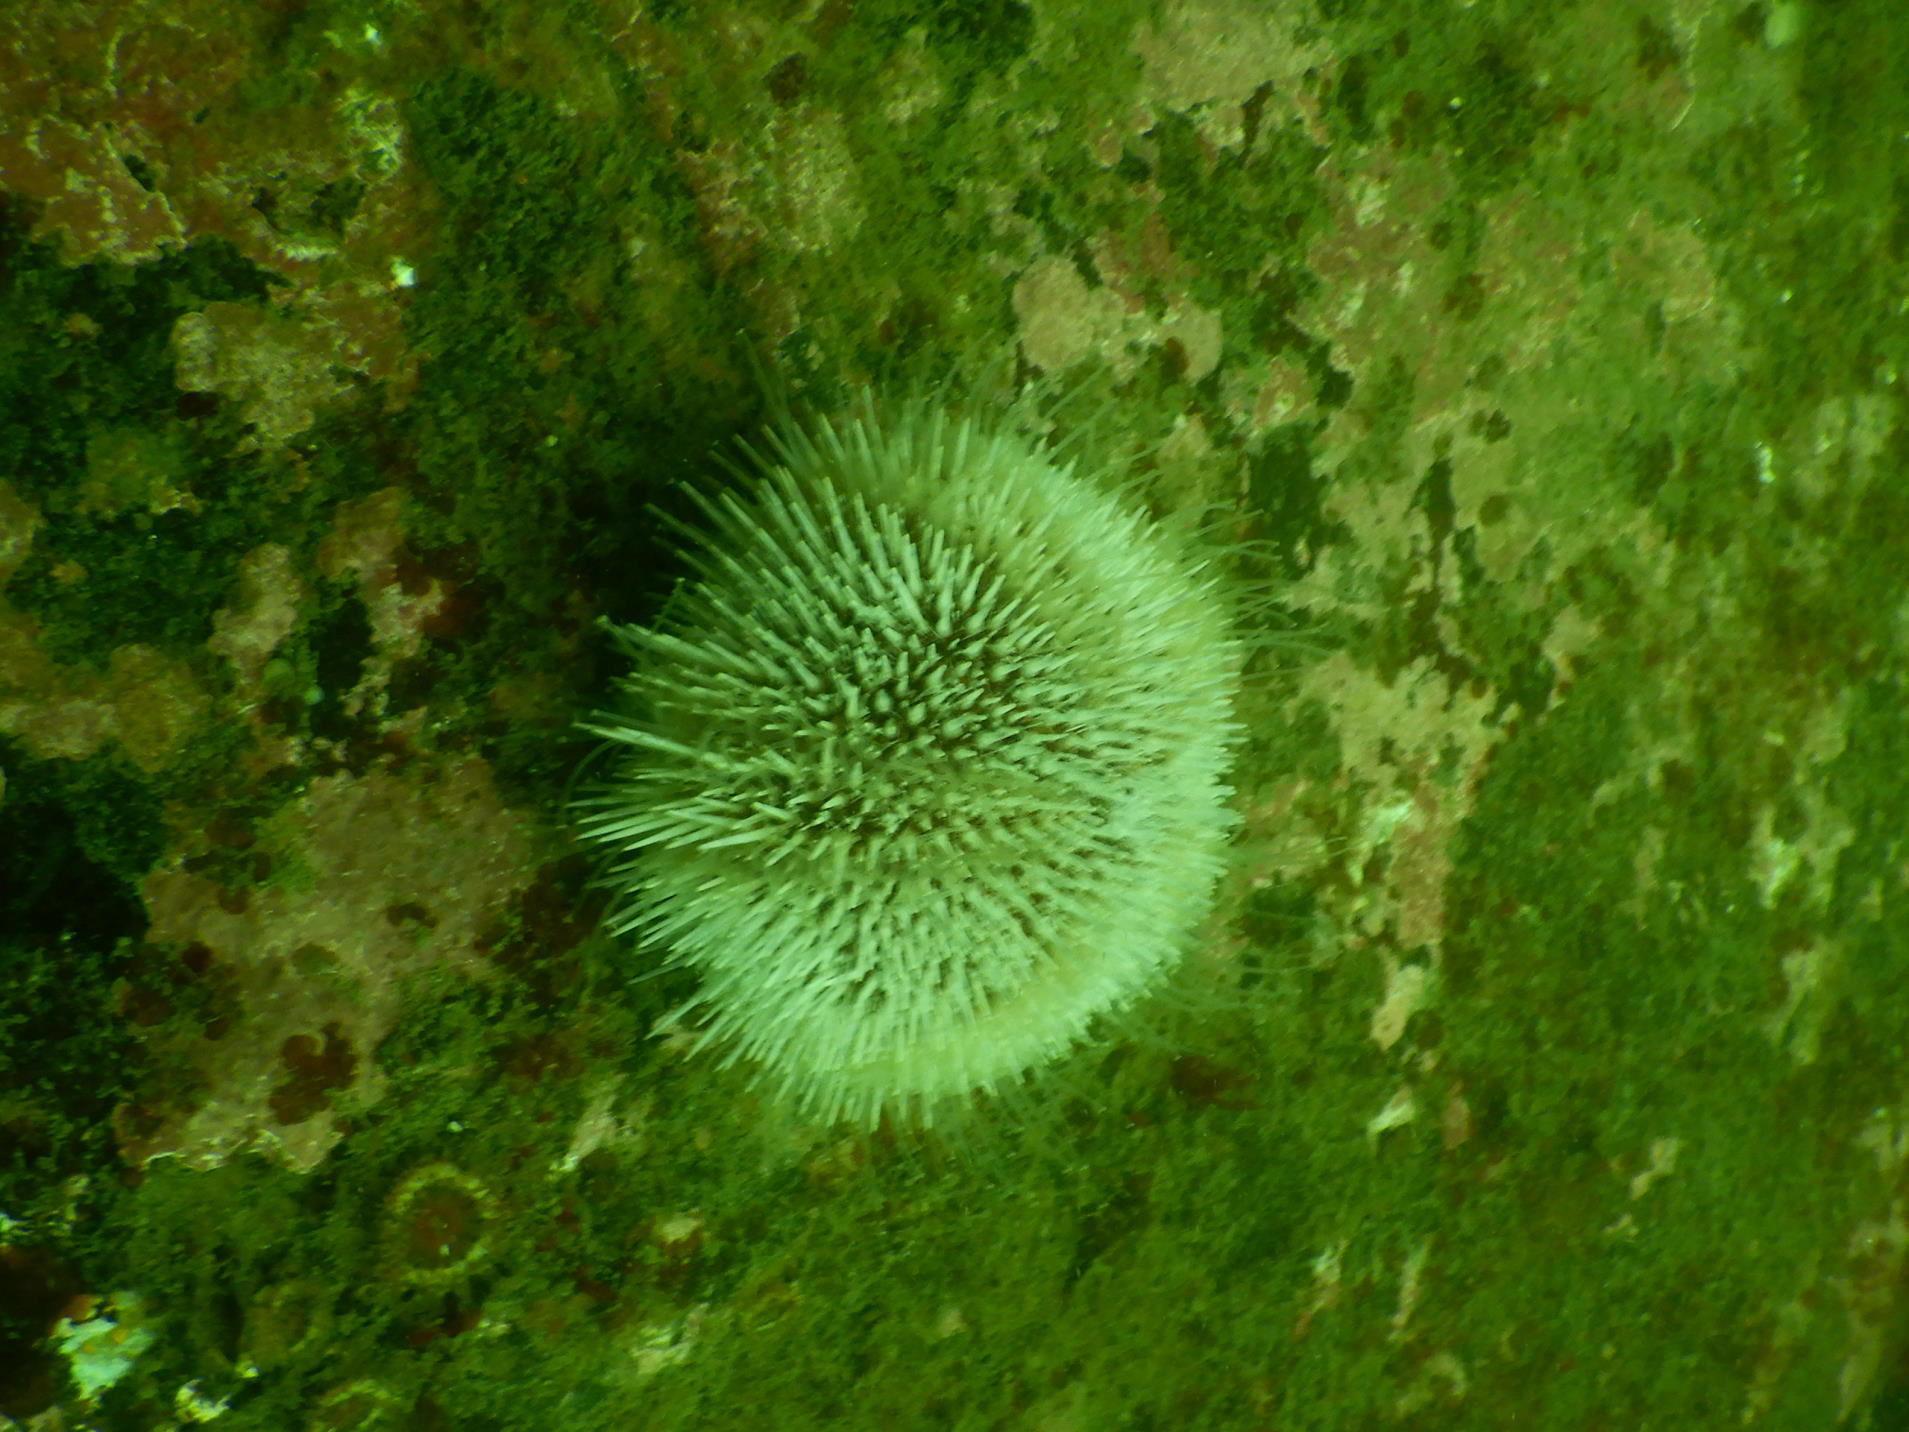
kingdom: Animalia
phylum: Echinodermata
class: Echinoidea
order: Camarodonta
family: Echinidae
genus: Echinus
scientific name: Echinus esculentus
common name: Edible sea urchin
